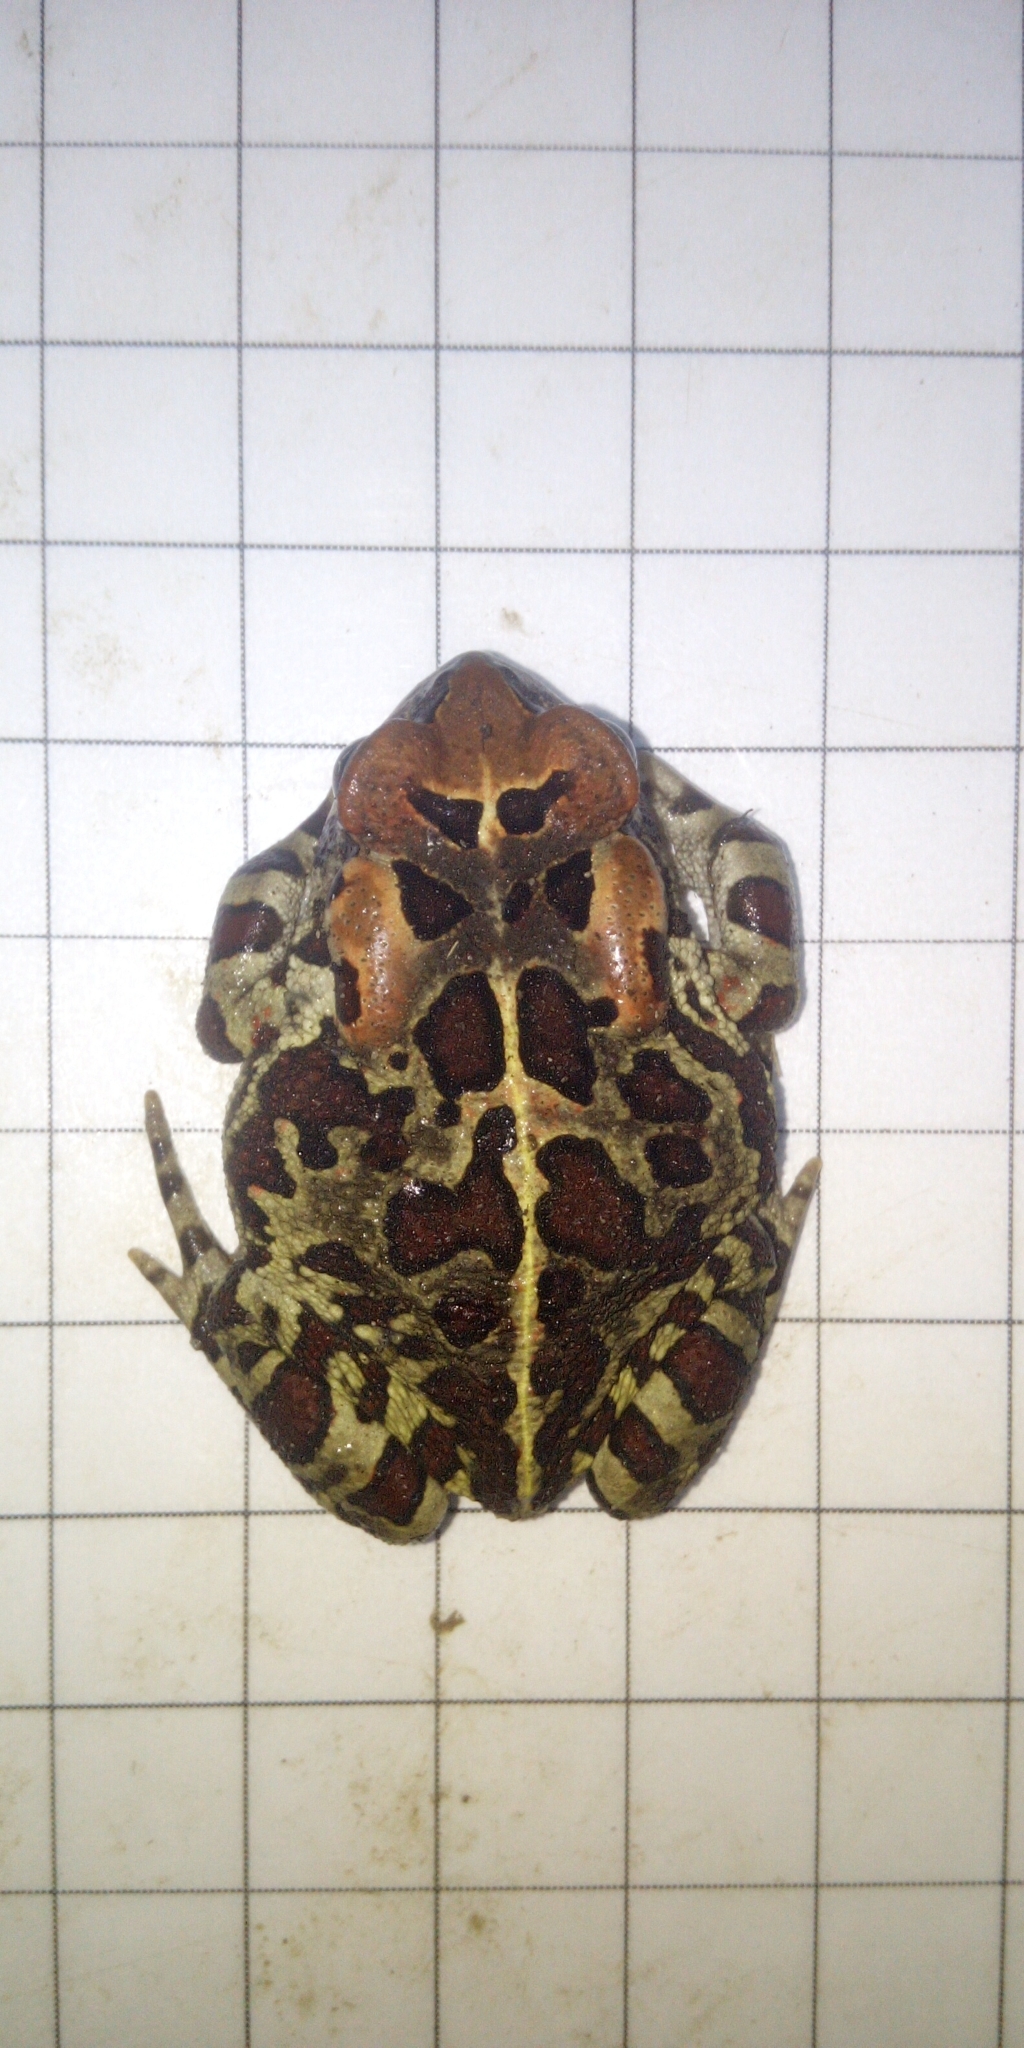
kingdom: Animalia
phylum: Chordata
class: Amphibia
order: Anura
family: Bufonidae
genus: Sclerophrys
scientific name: Sclerophrys pantherina
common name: Panther toad
